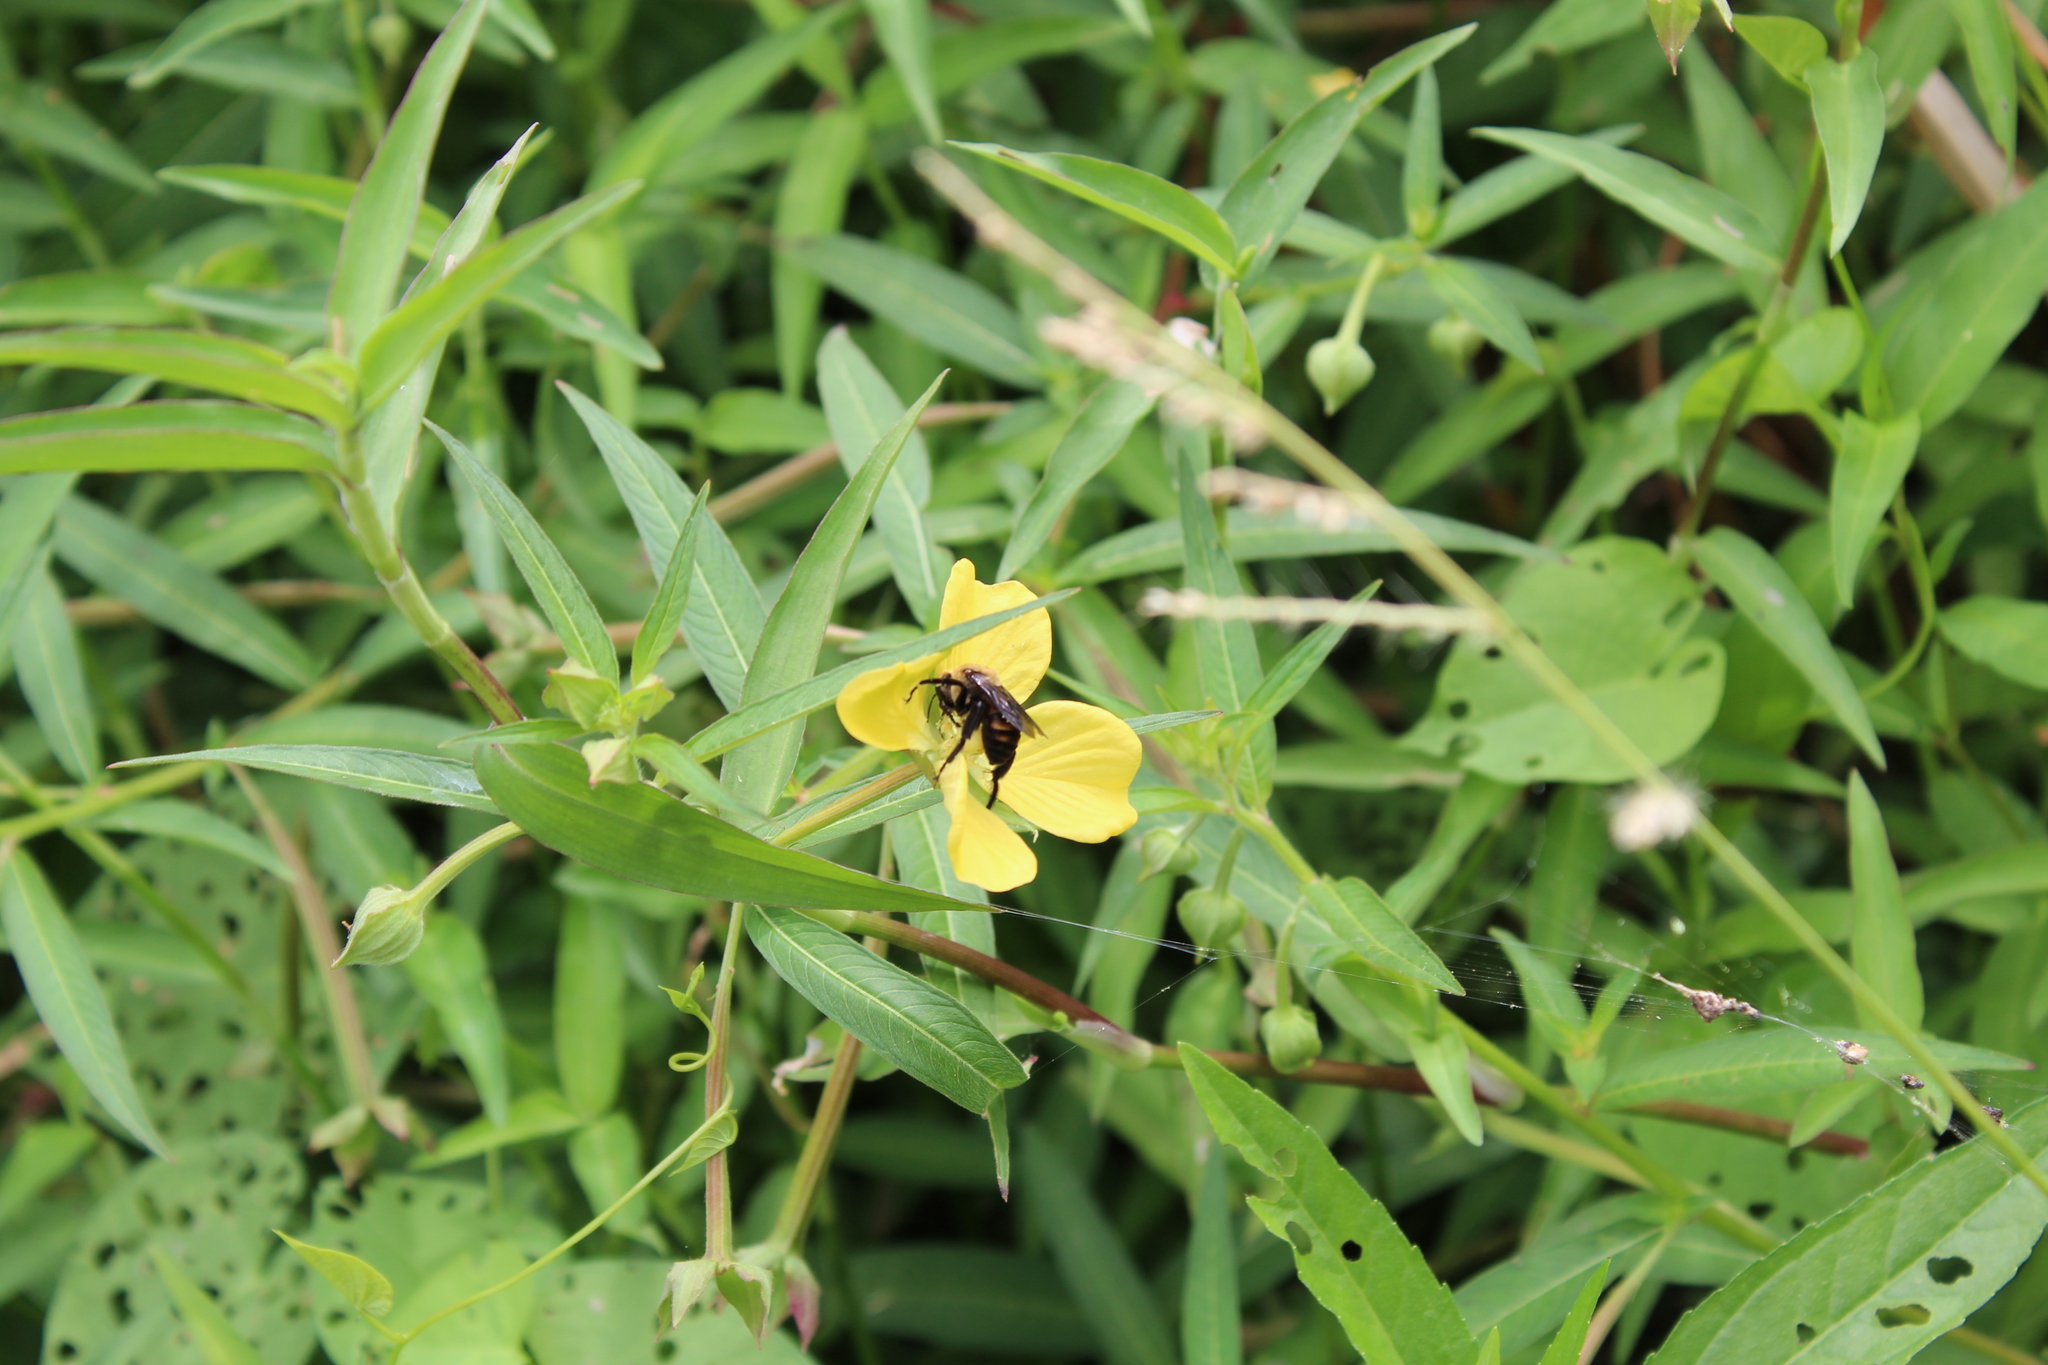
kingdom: Animalia
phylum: Arthropoda
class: Insecta
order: Hymenoptera
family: Apidae
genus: Ptilothrix
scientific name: Ptilothrix bombiformis
